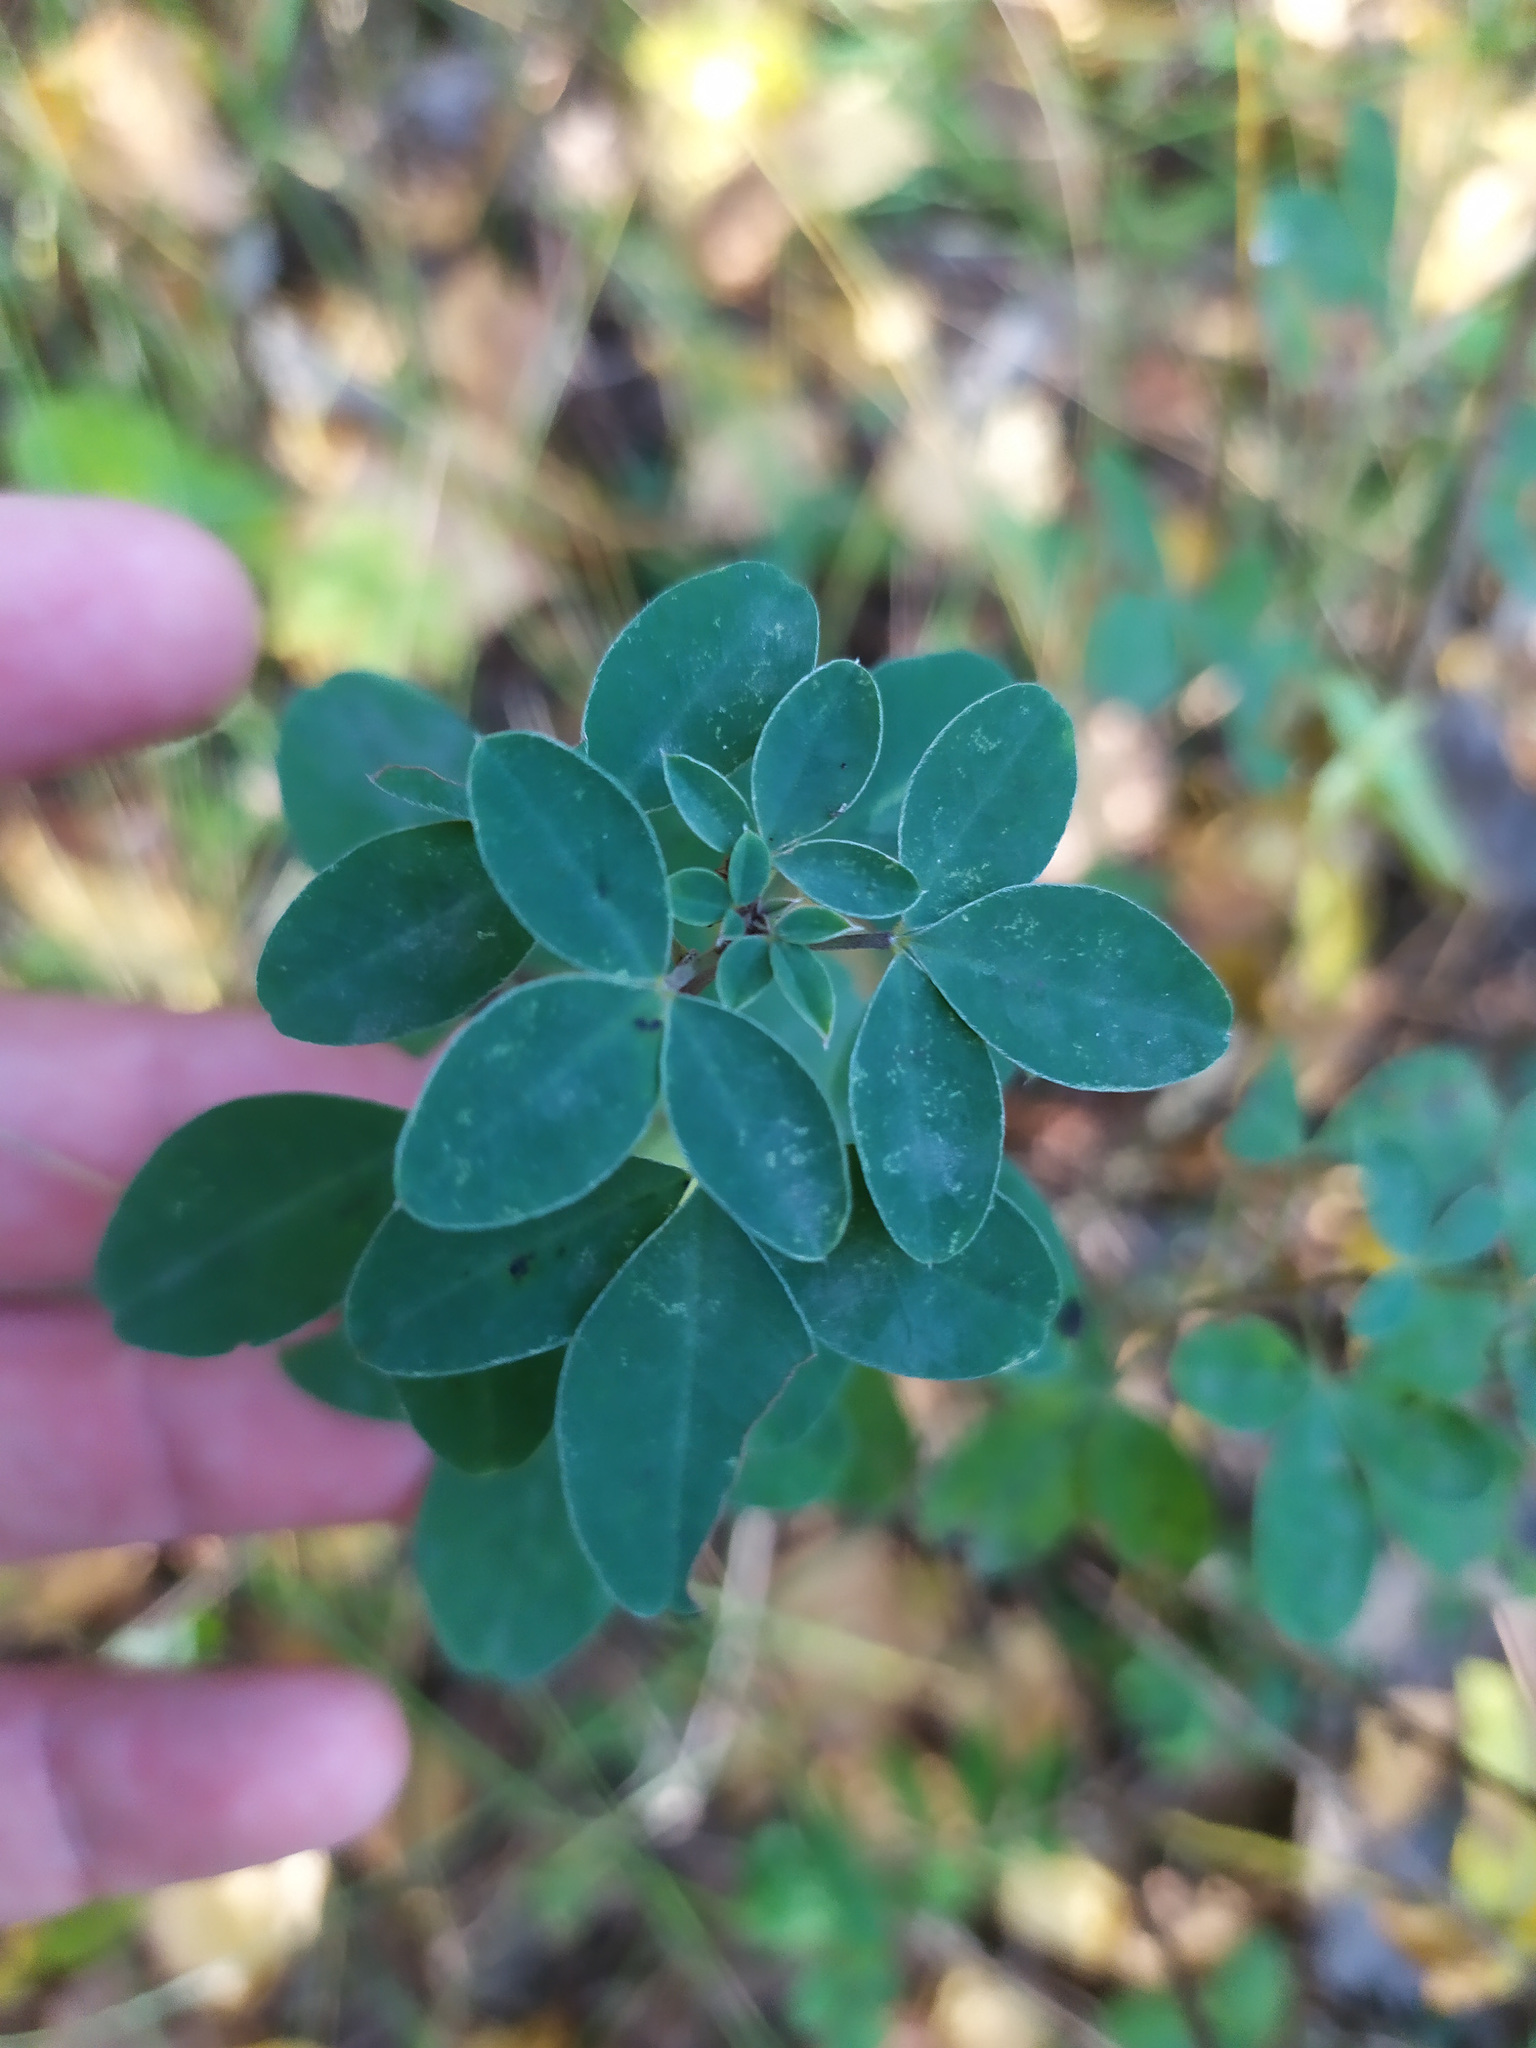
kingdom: Plantae
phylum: Tracheophyta
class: Magnoliopsida
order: Fabales
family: Fabaceae
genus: Chamaecytisus
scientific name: Chamaecytisus ruthenicus
